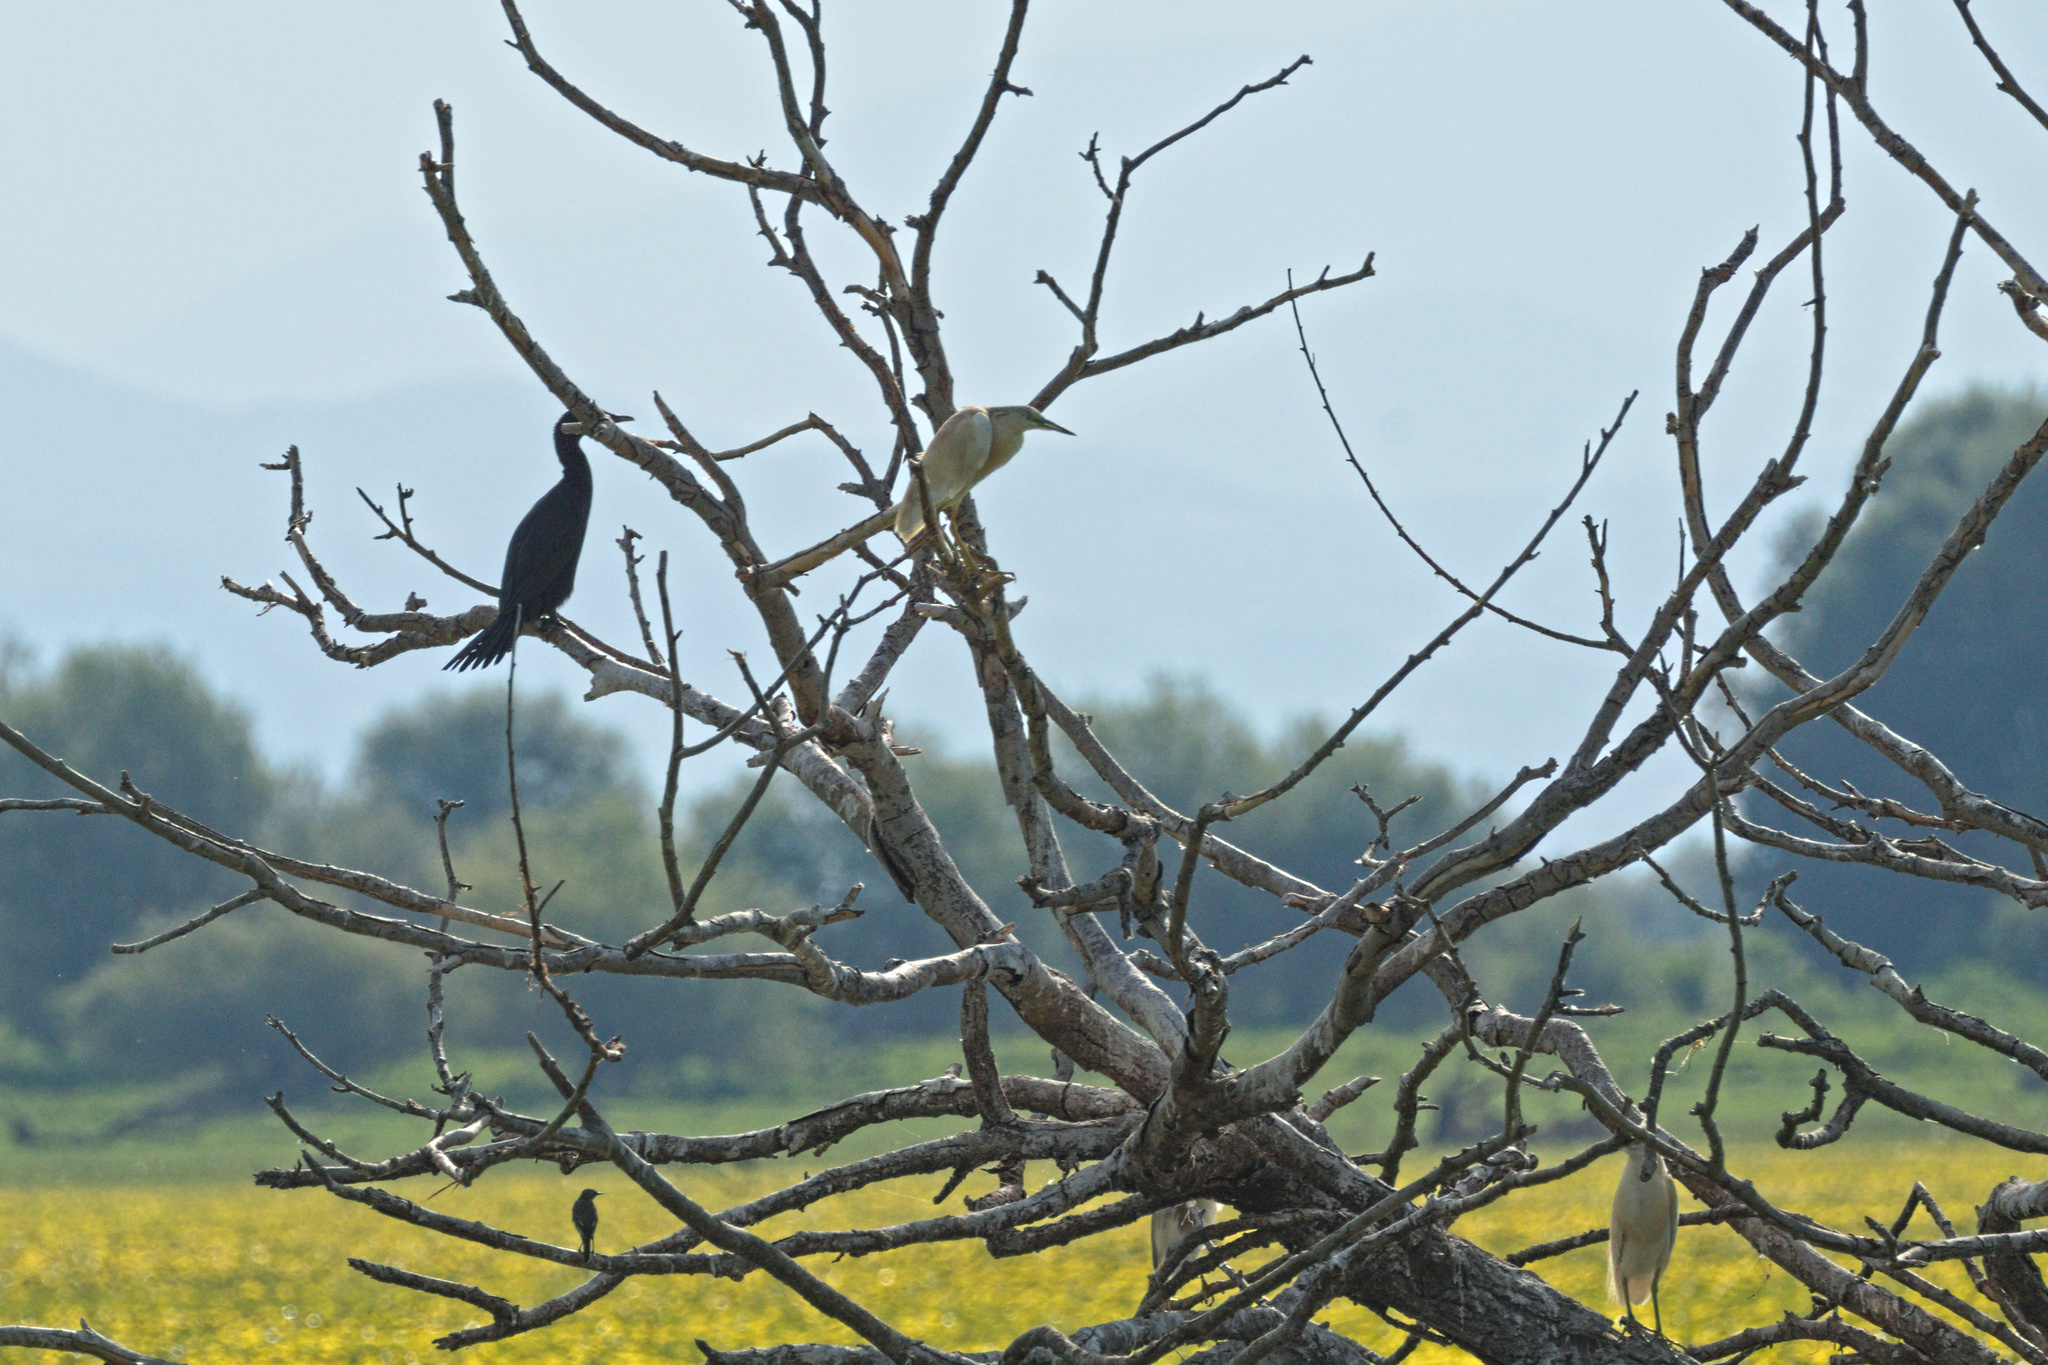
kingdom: Animalia
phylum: Chordata
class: Aves
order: Suliformes
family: Phalacrocoracidae
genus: Phalacrocorax
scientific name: Phalacrocorax carbo
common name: Great cormorant
